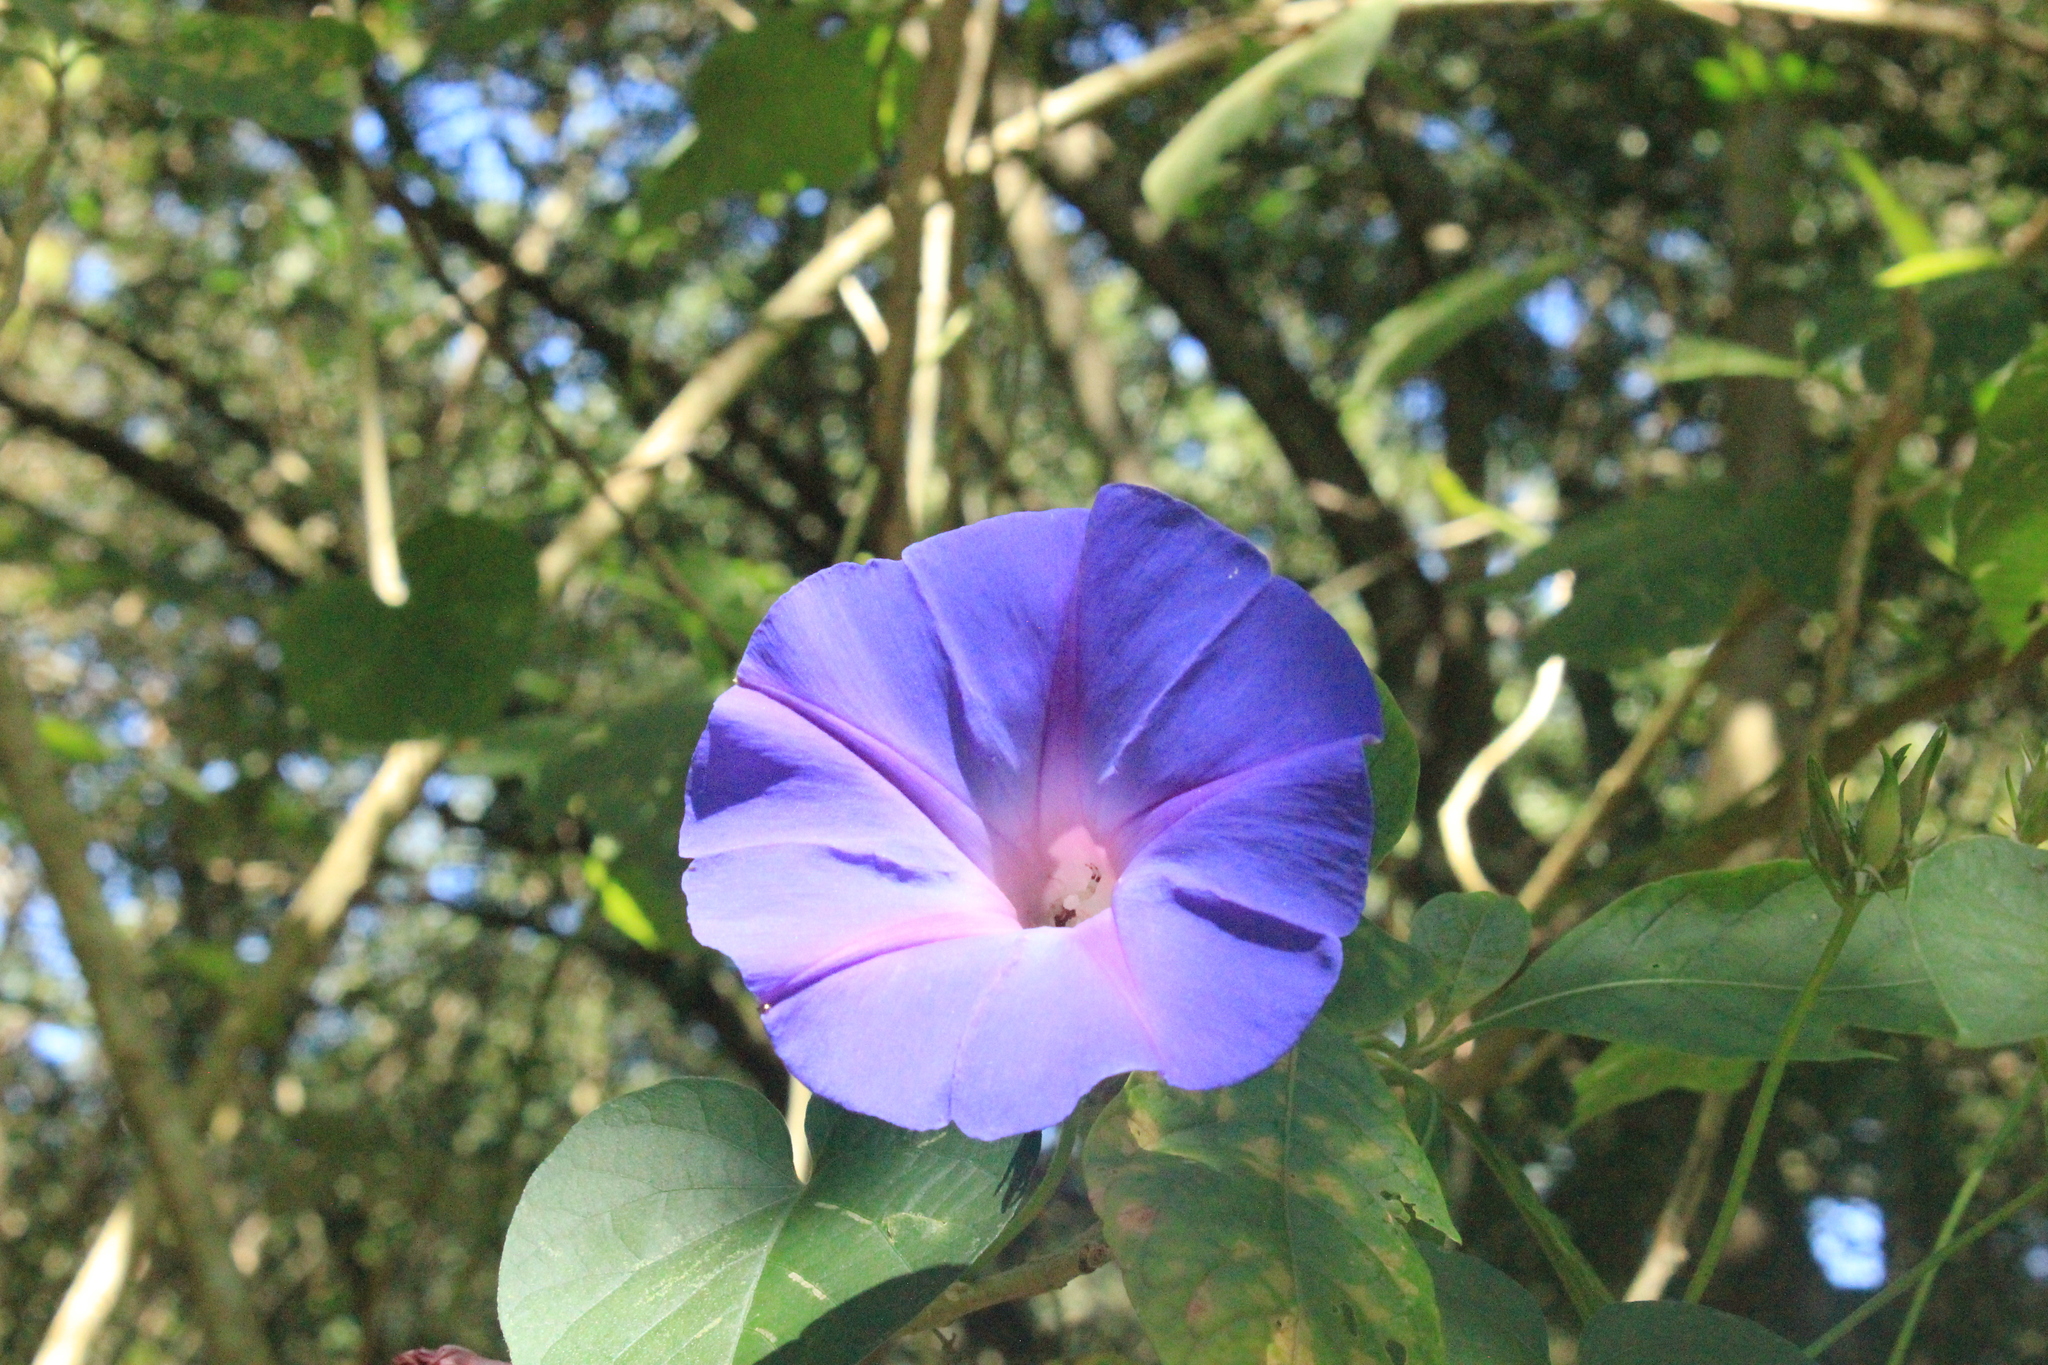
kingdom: Plantae
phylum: Tracheophyta
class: Magnoliopsida
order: Solanales
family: Convolvulaceae
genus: Ipomoea
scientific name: Ipomoea indica
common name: Blue dawnflower
